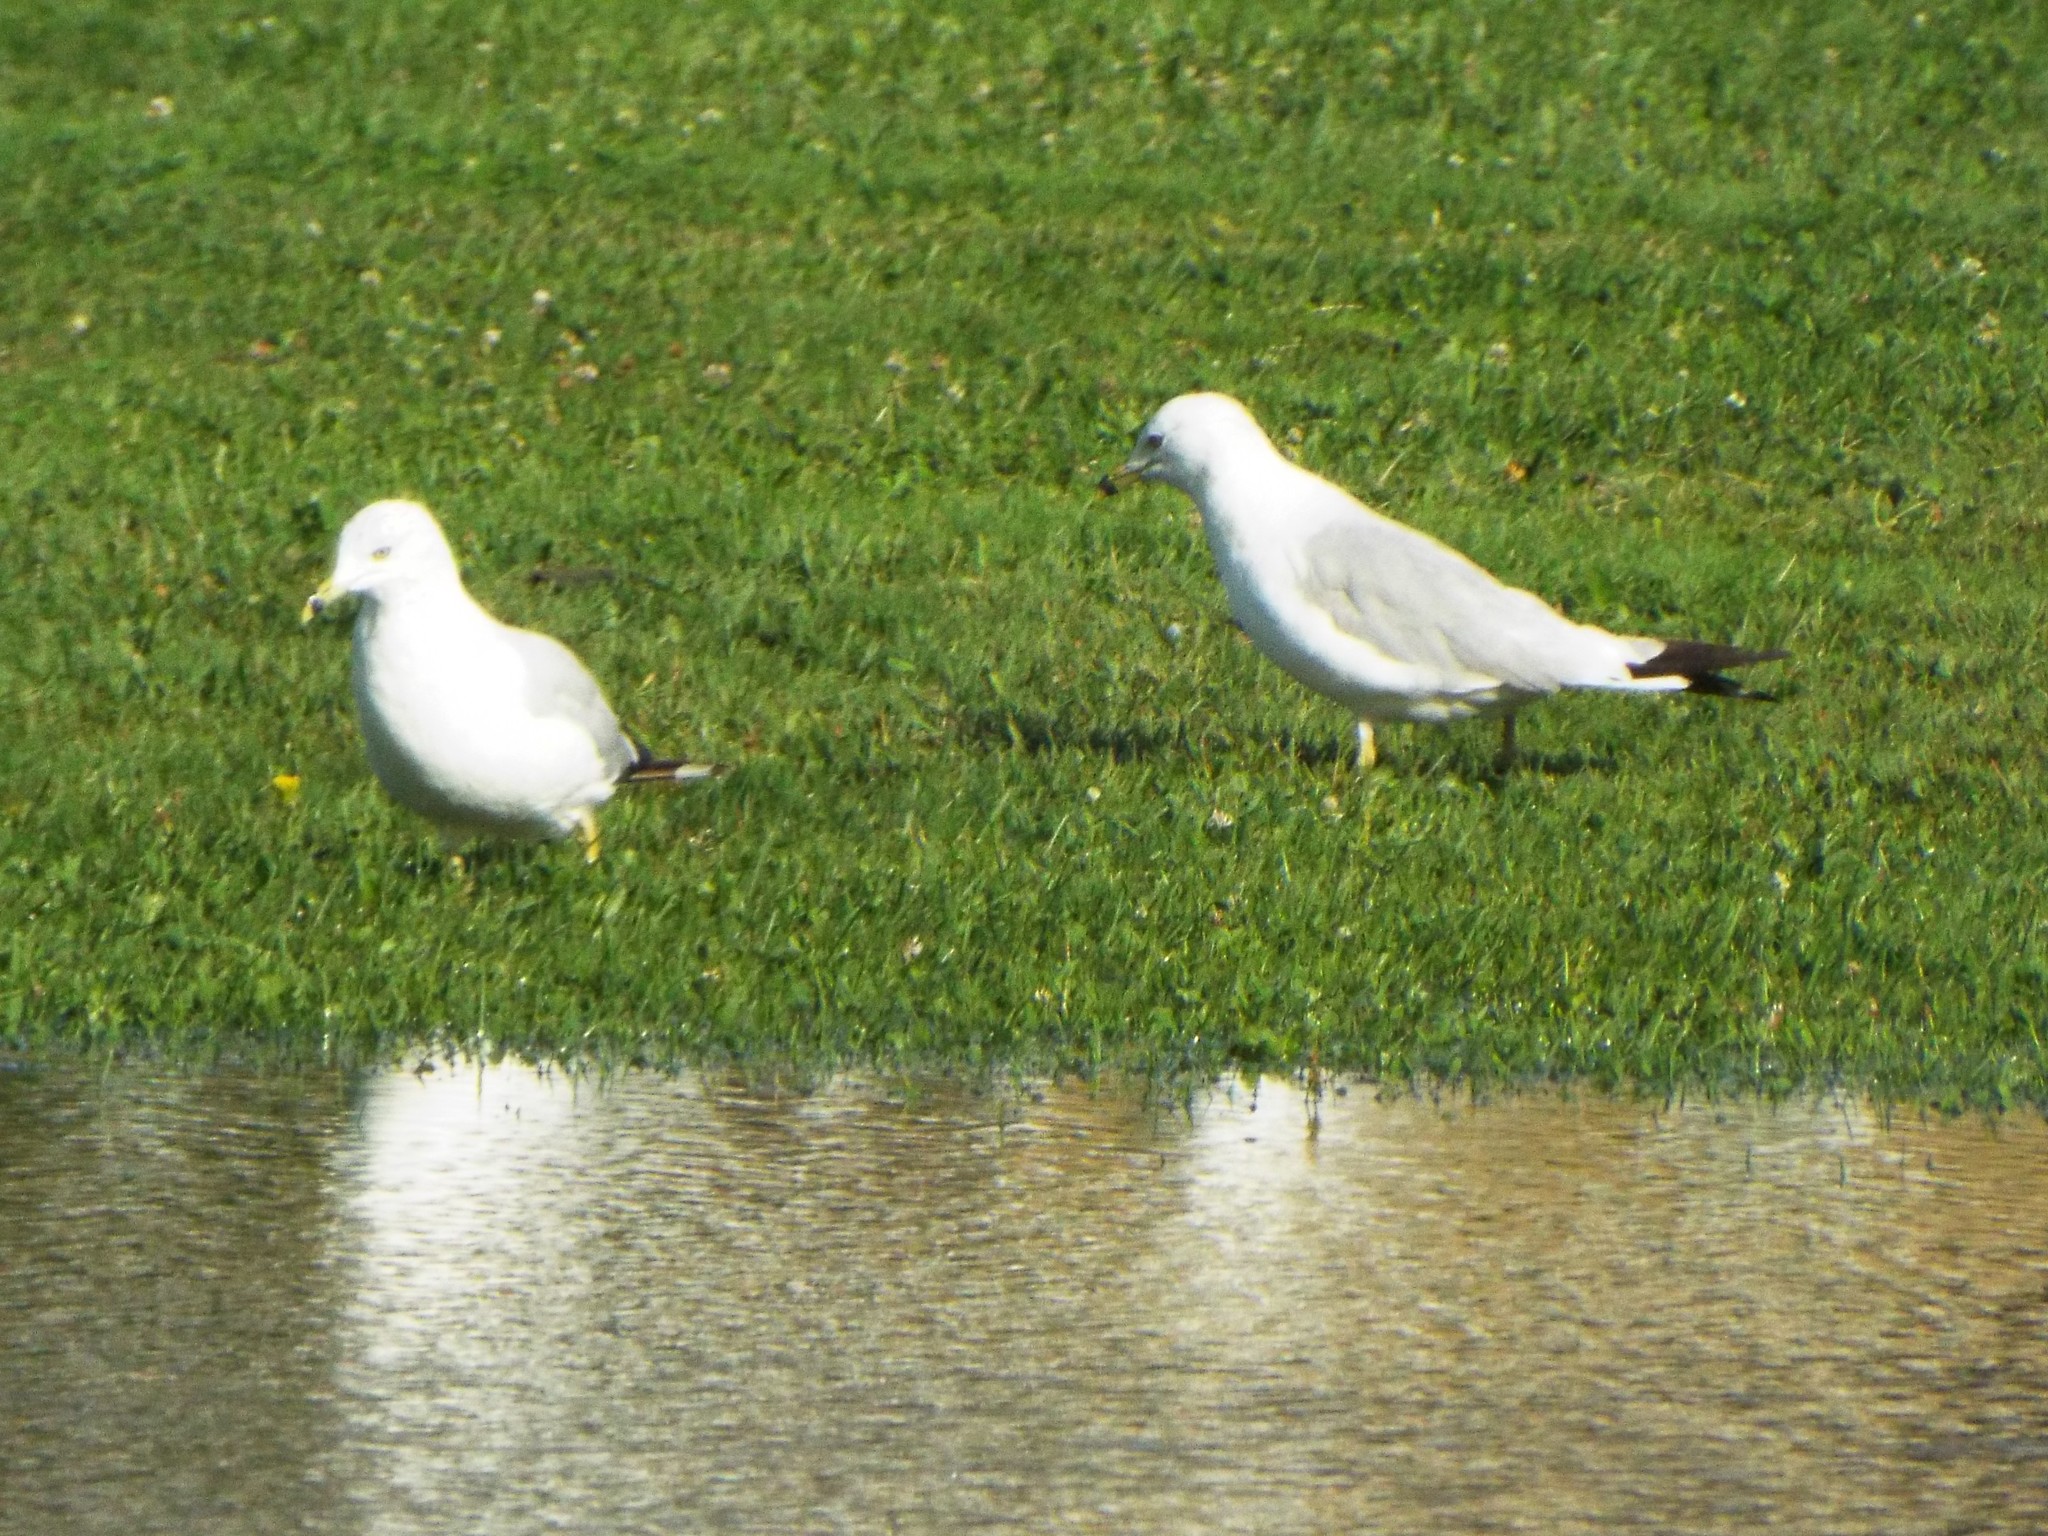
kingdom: Animalia
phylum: Chordata
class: Aves
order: Charadriiformes
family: Laridae
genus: Larus
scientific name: Larus delawarensis
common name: Ring-billed gull
